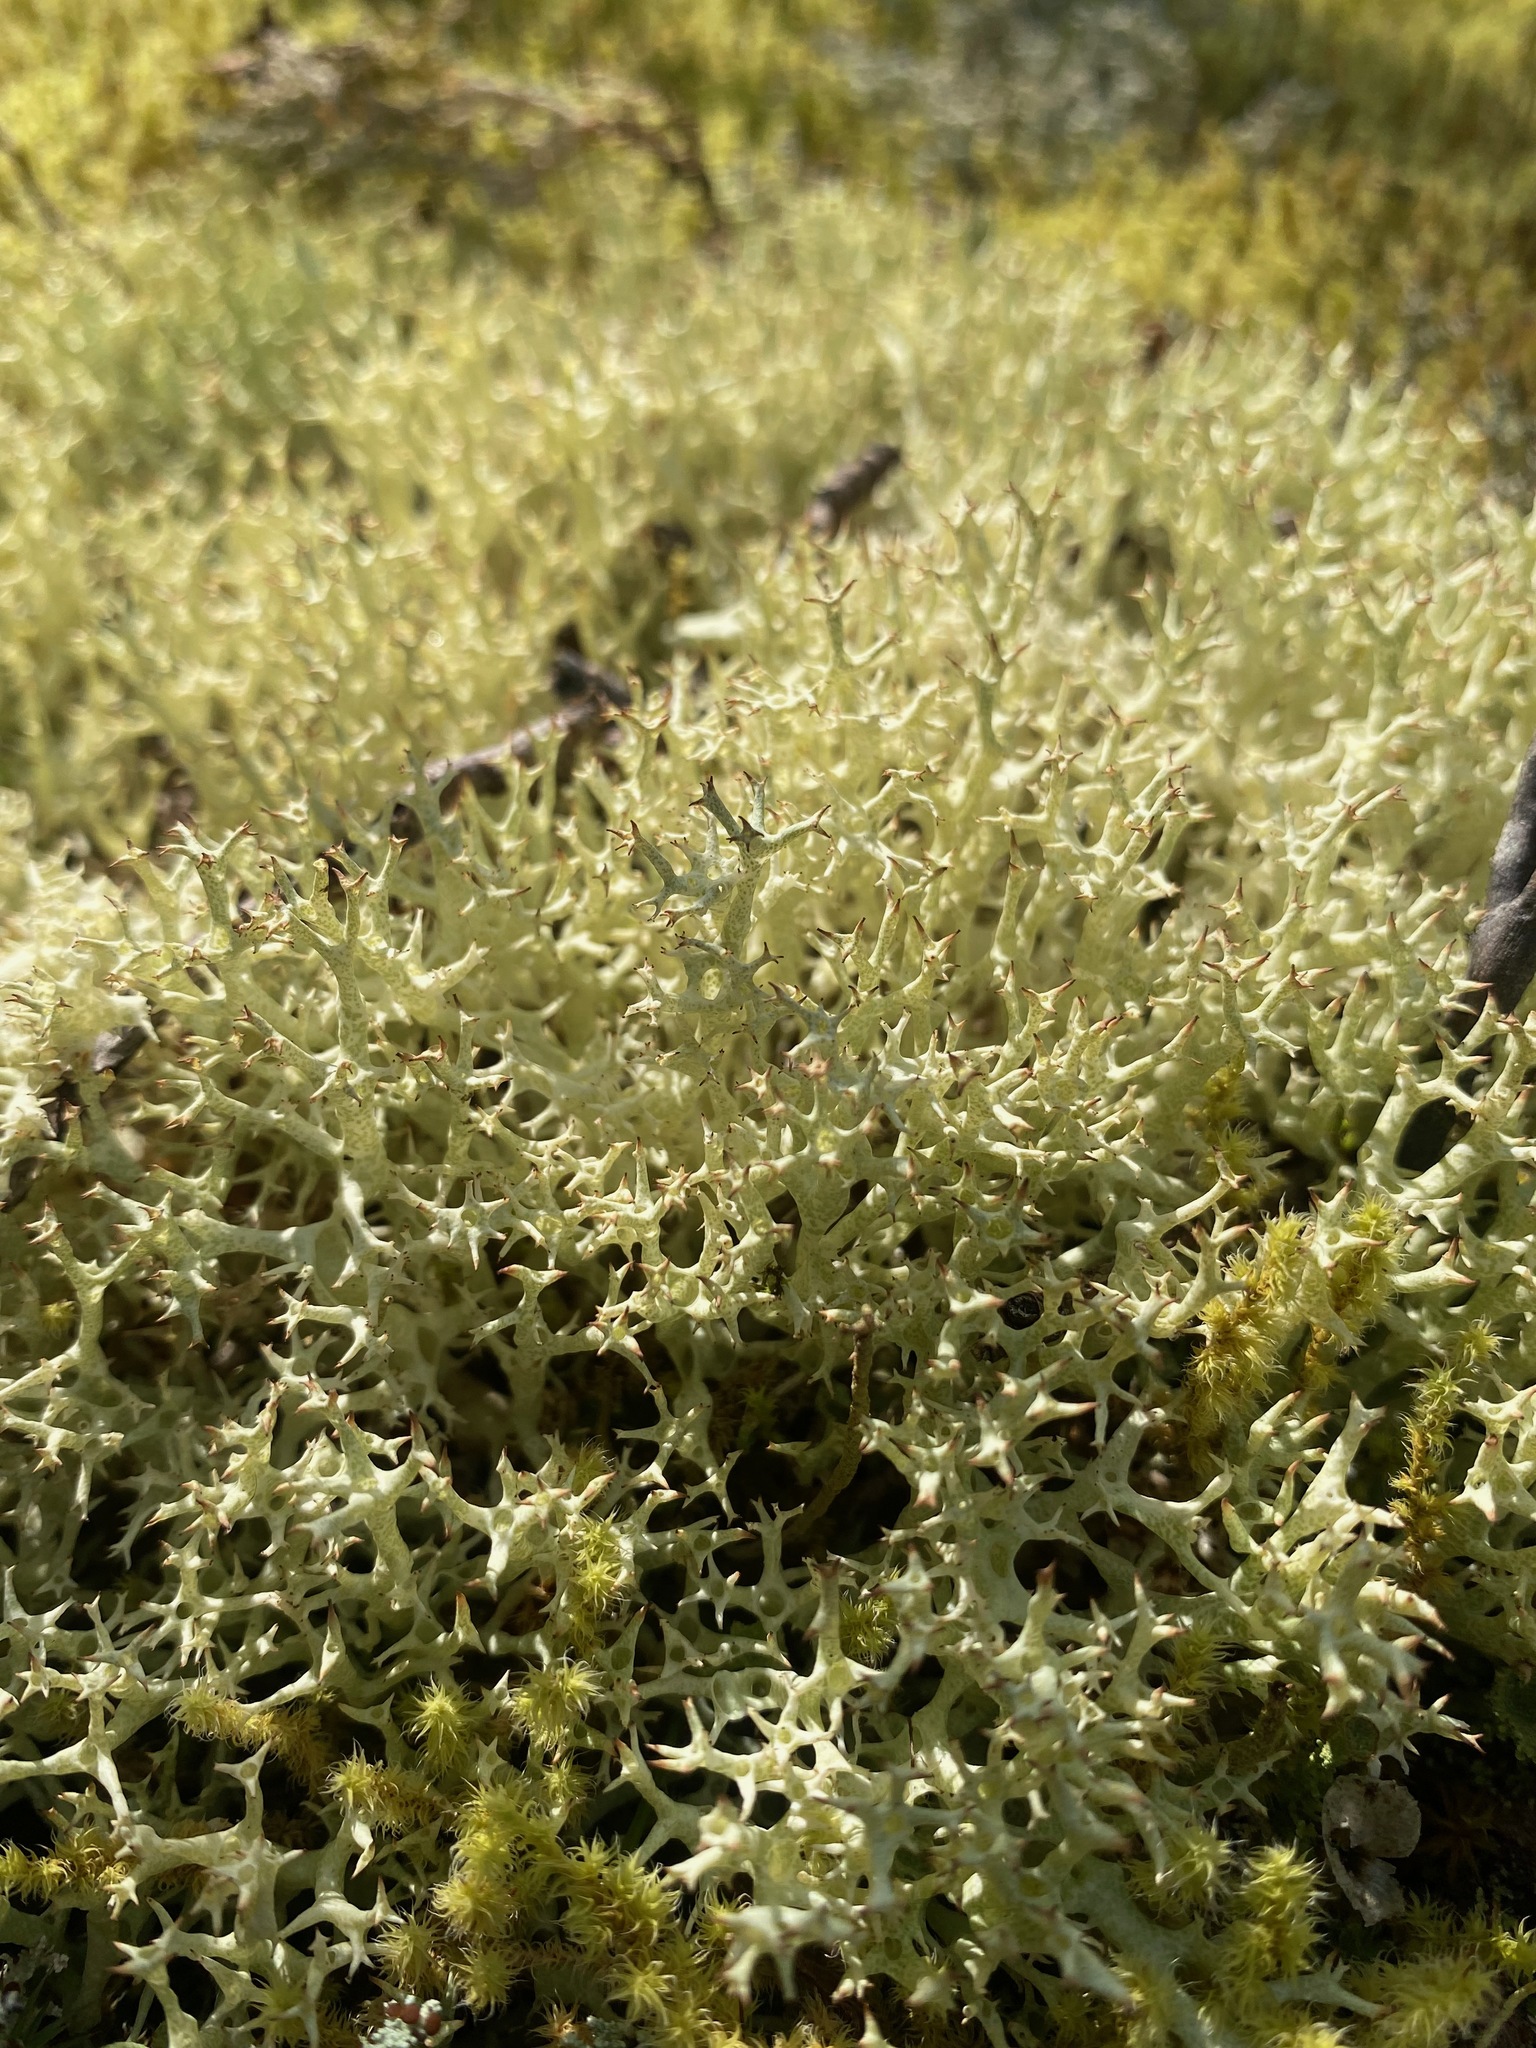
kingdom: Fungi
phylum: Ascomycota
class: Lecanoromycetes
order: Lecanorales
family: Cladoniaceae
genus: Cladonia
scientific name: Cladonia uncialis
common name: Thorn lichen
